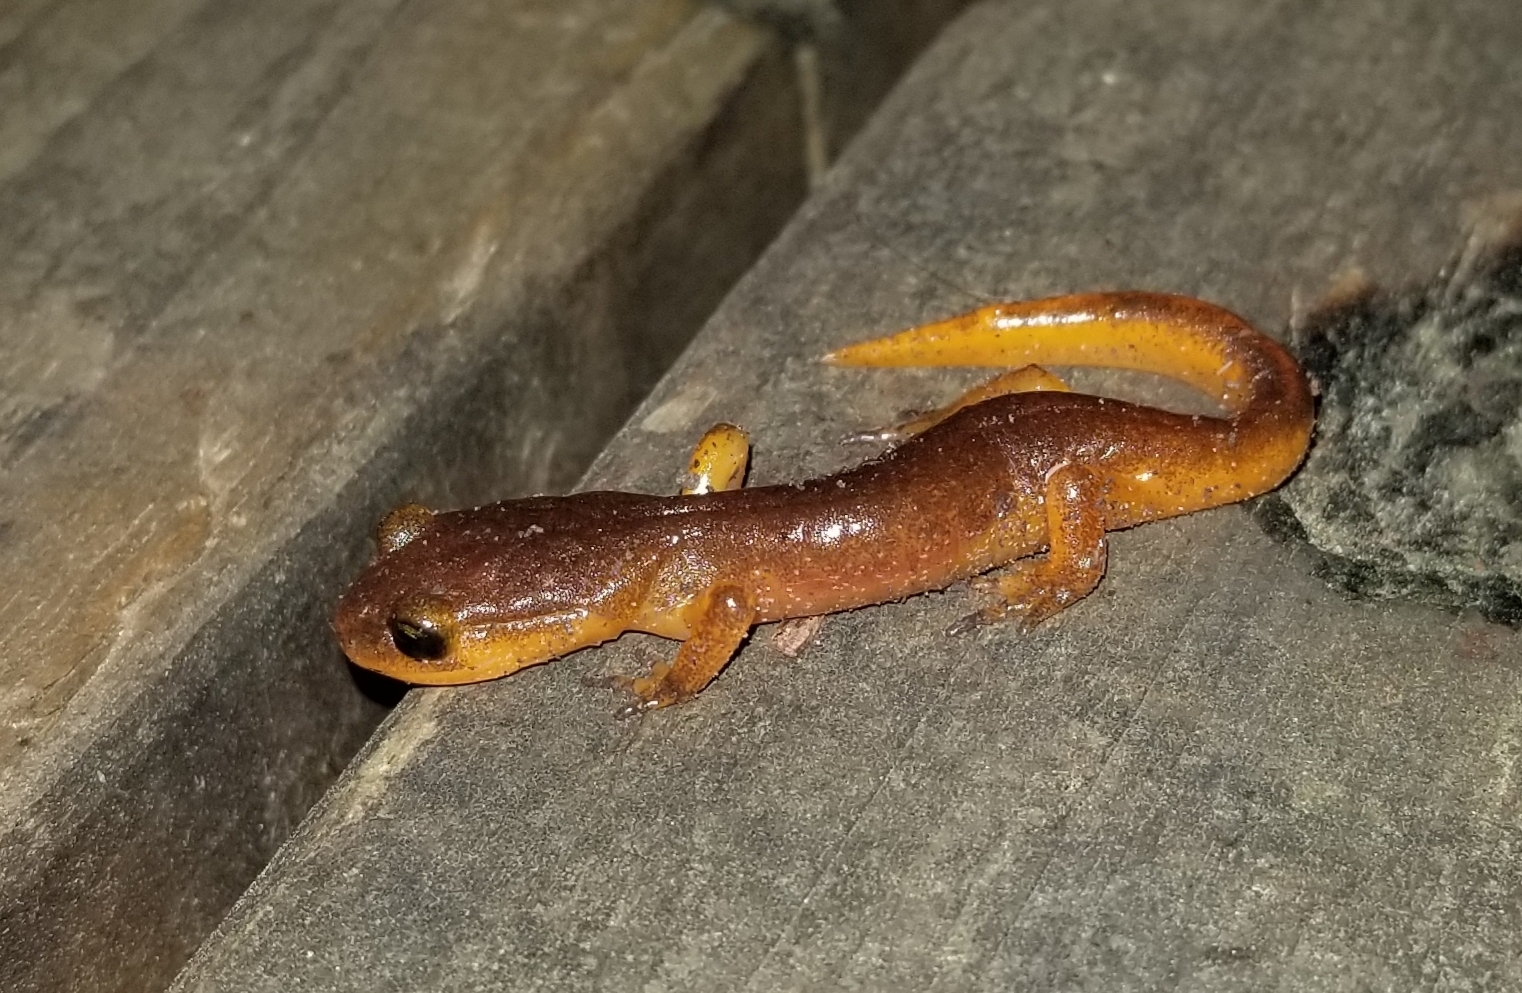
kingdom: Animalia
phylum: Chordata
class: Amphibia
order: Caudata
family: Plethodontidae
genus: Ensatina
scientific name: Ensatina eschscholtzii
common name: Ensatina
